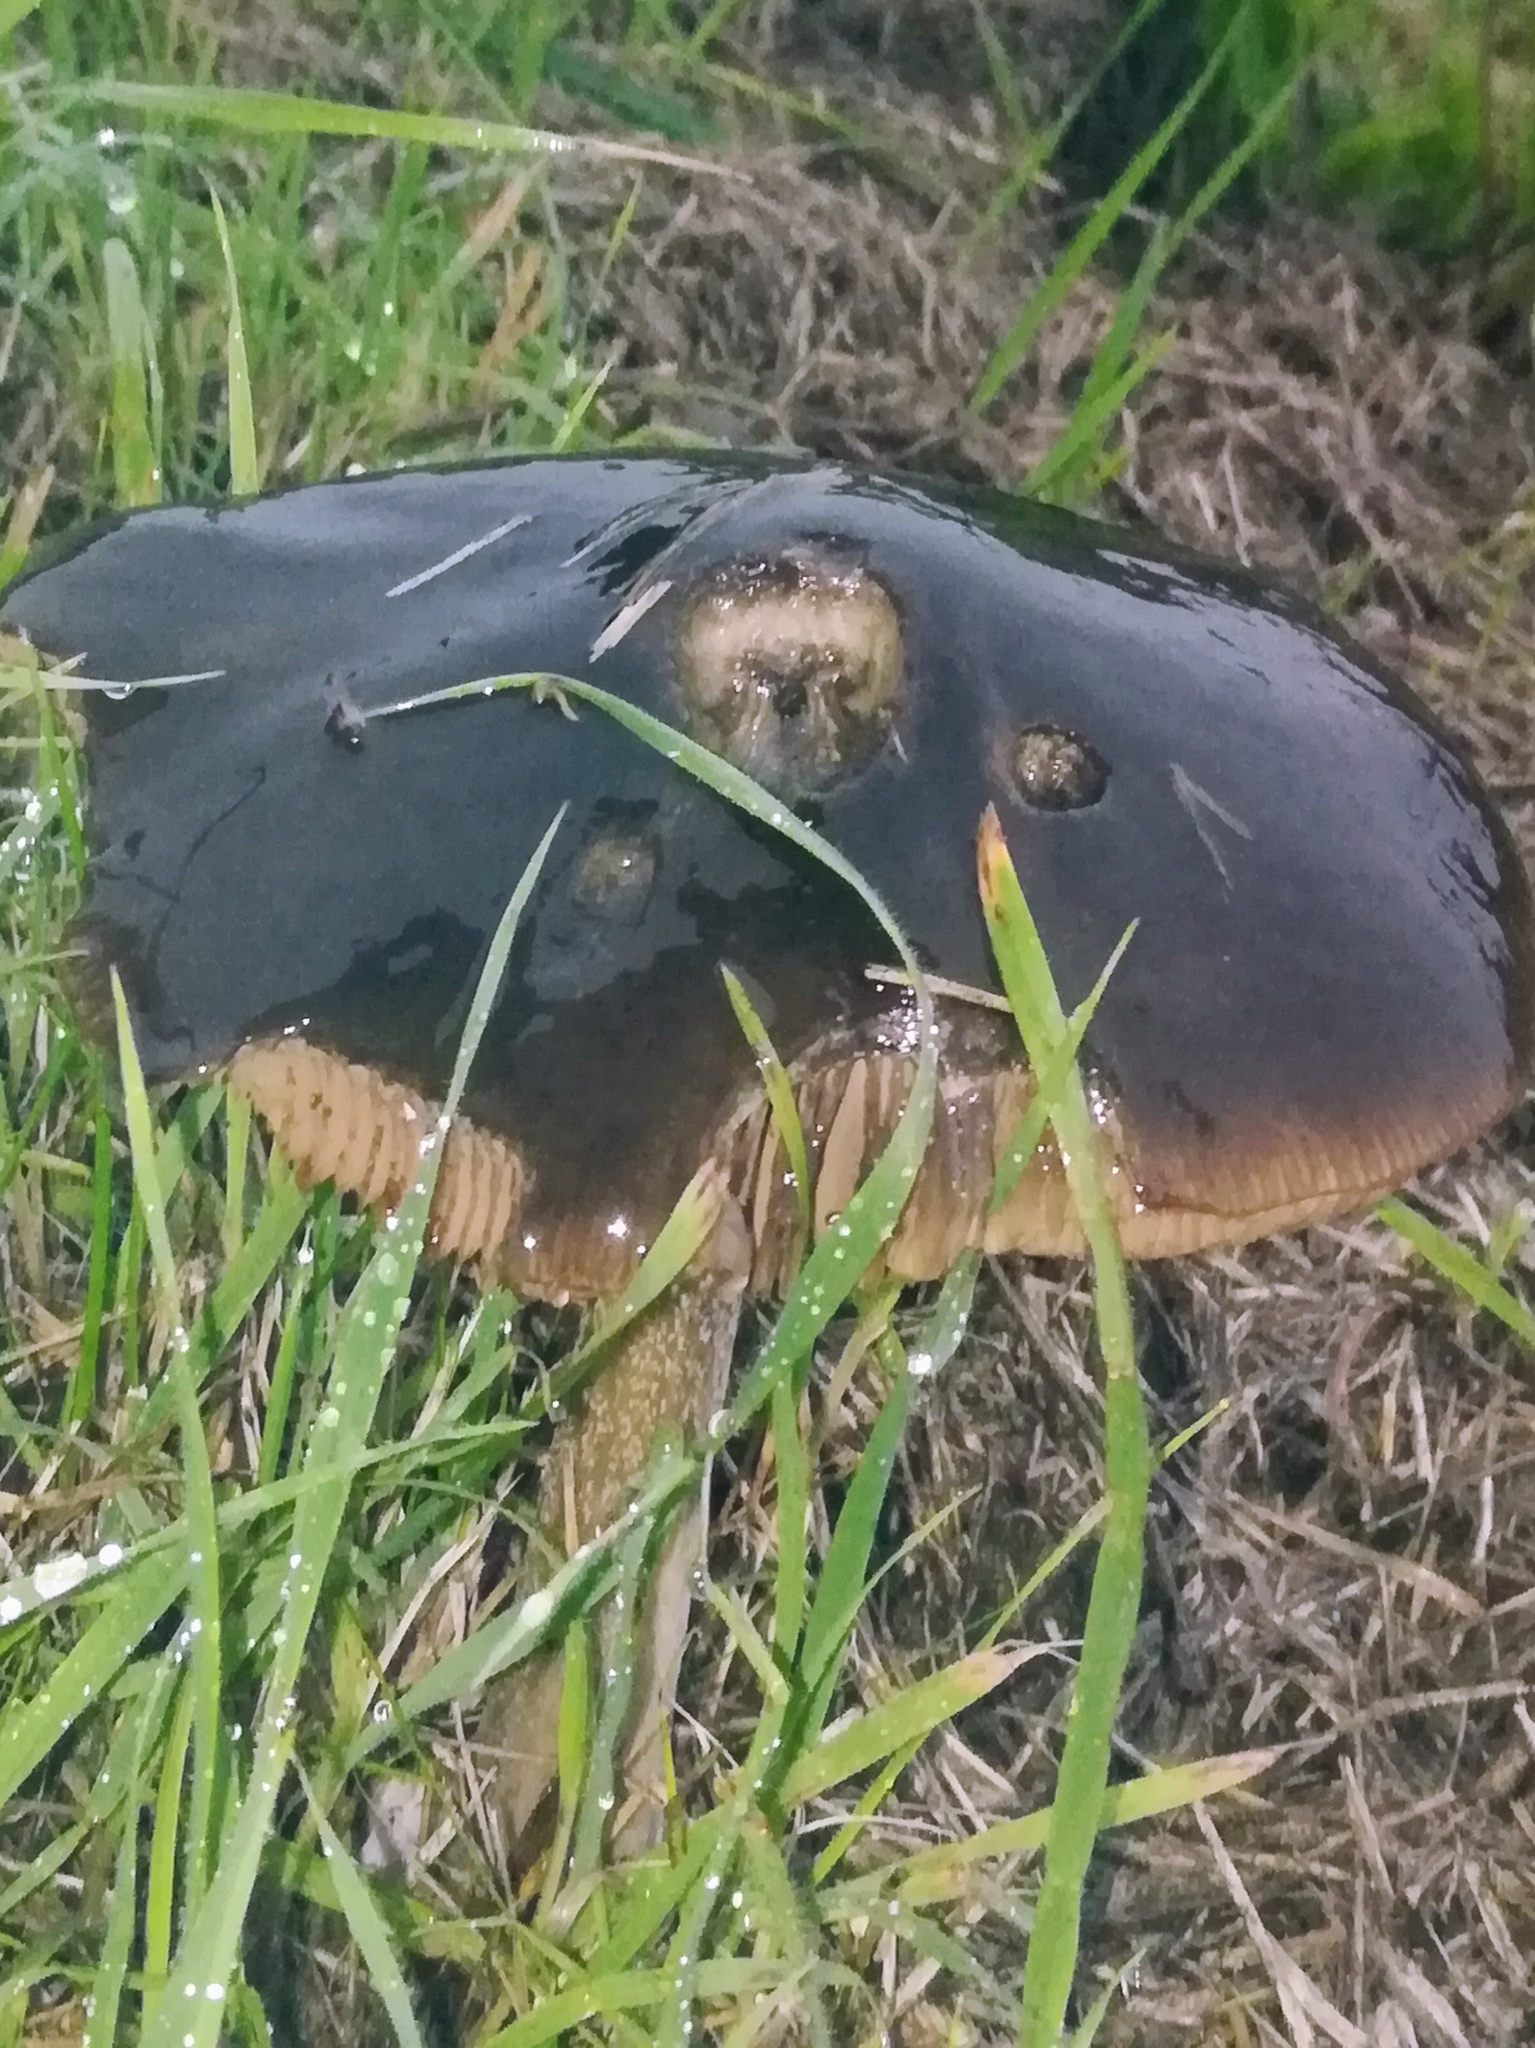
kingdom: Fungi
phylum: Basidiomycota
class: Agaricomycetes
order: Agaricales
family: Pluteaceae
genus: Volvopluteus
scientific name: Volvopluteus gloiocephalus
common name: Stubble rosegill
